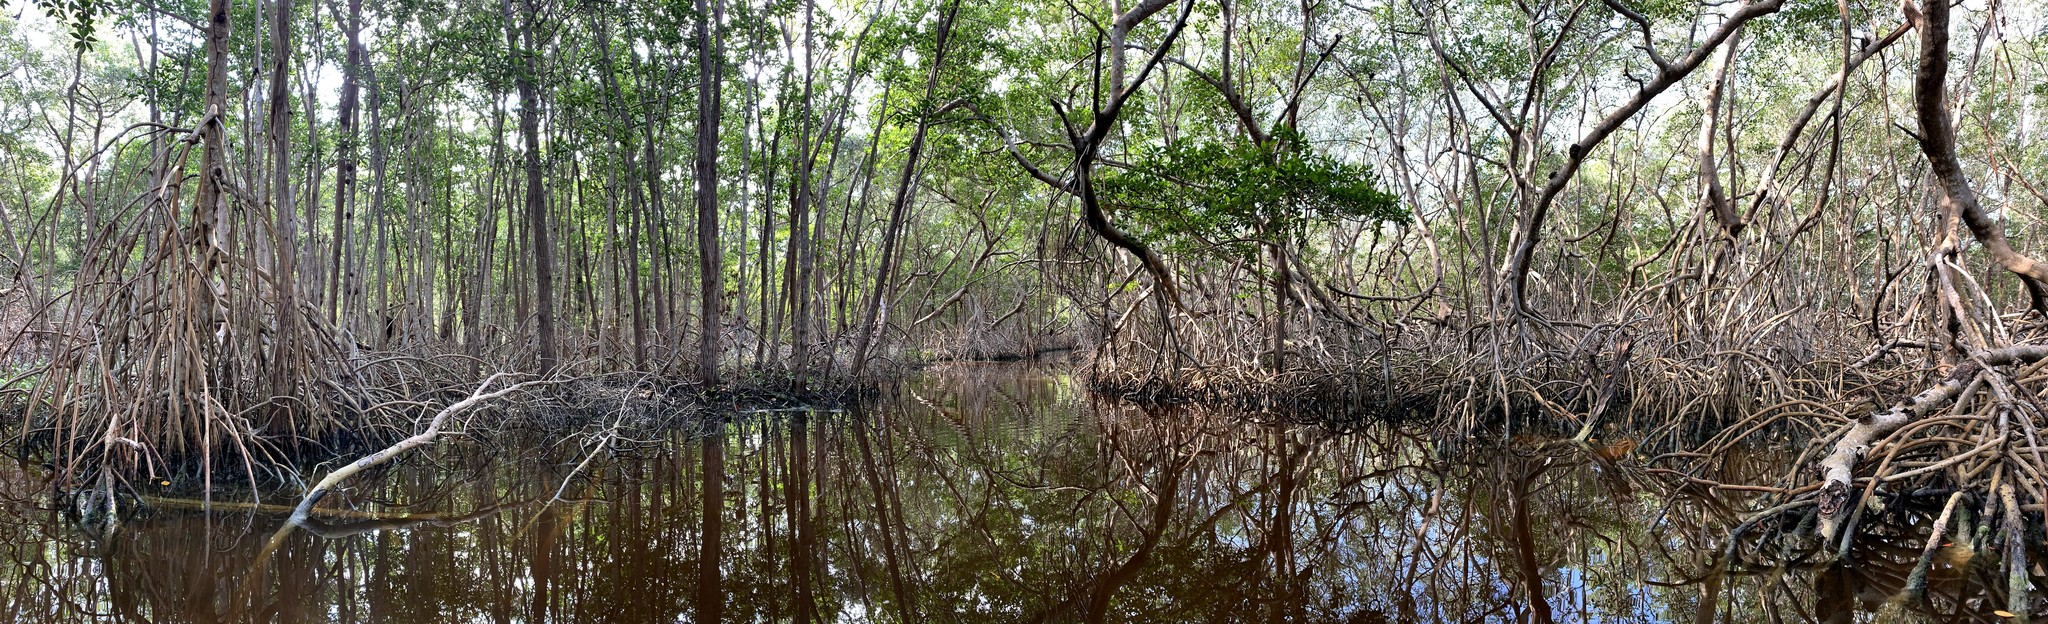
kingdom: Plantae
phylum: Tracheophyta
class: Magnoliopsida
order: Malpighiales
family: Rhizophoraceae
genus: Rhizophora
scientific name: Rhizophora mangle
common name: Red mangrove
